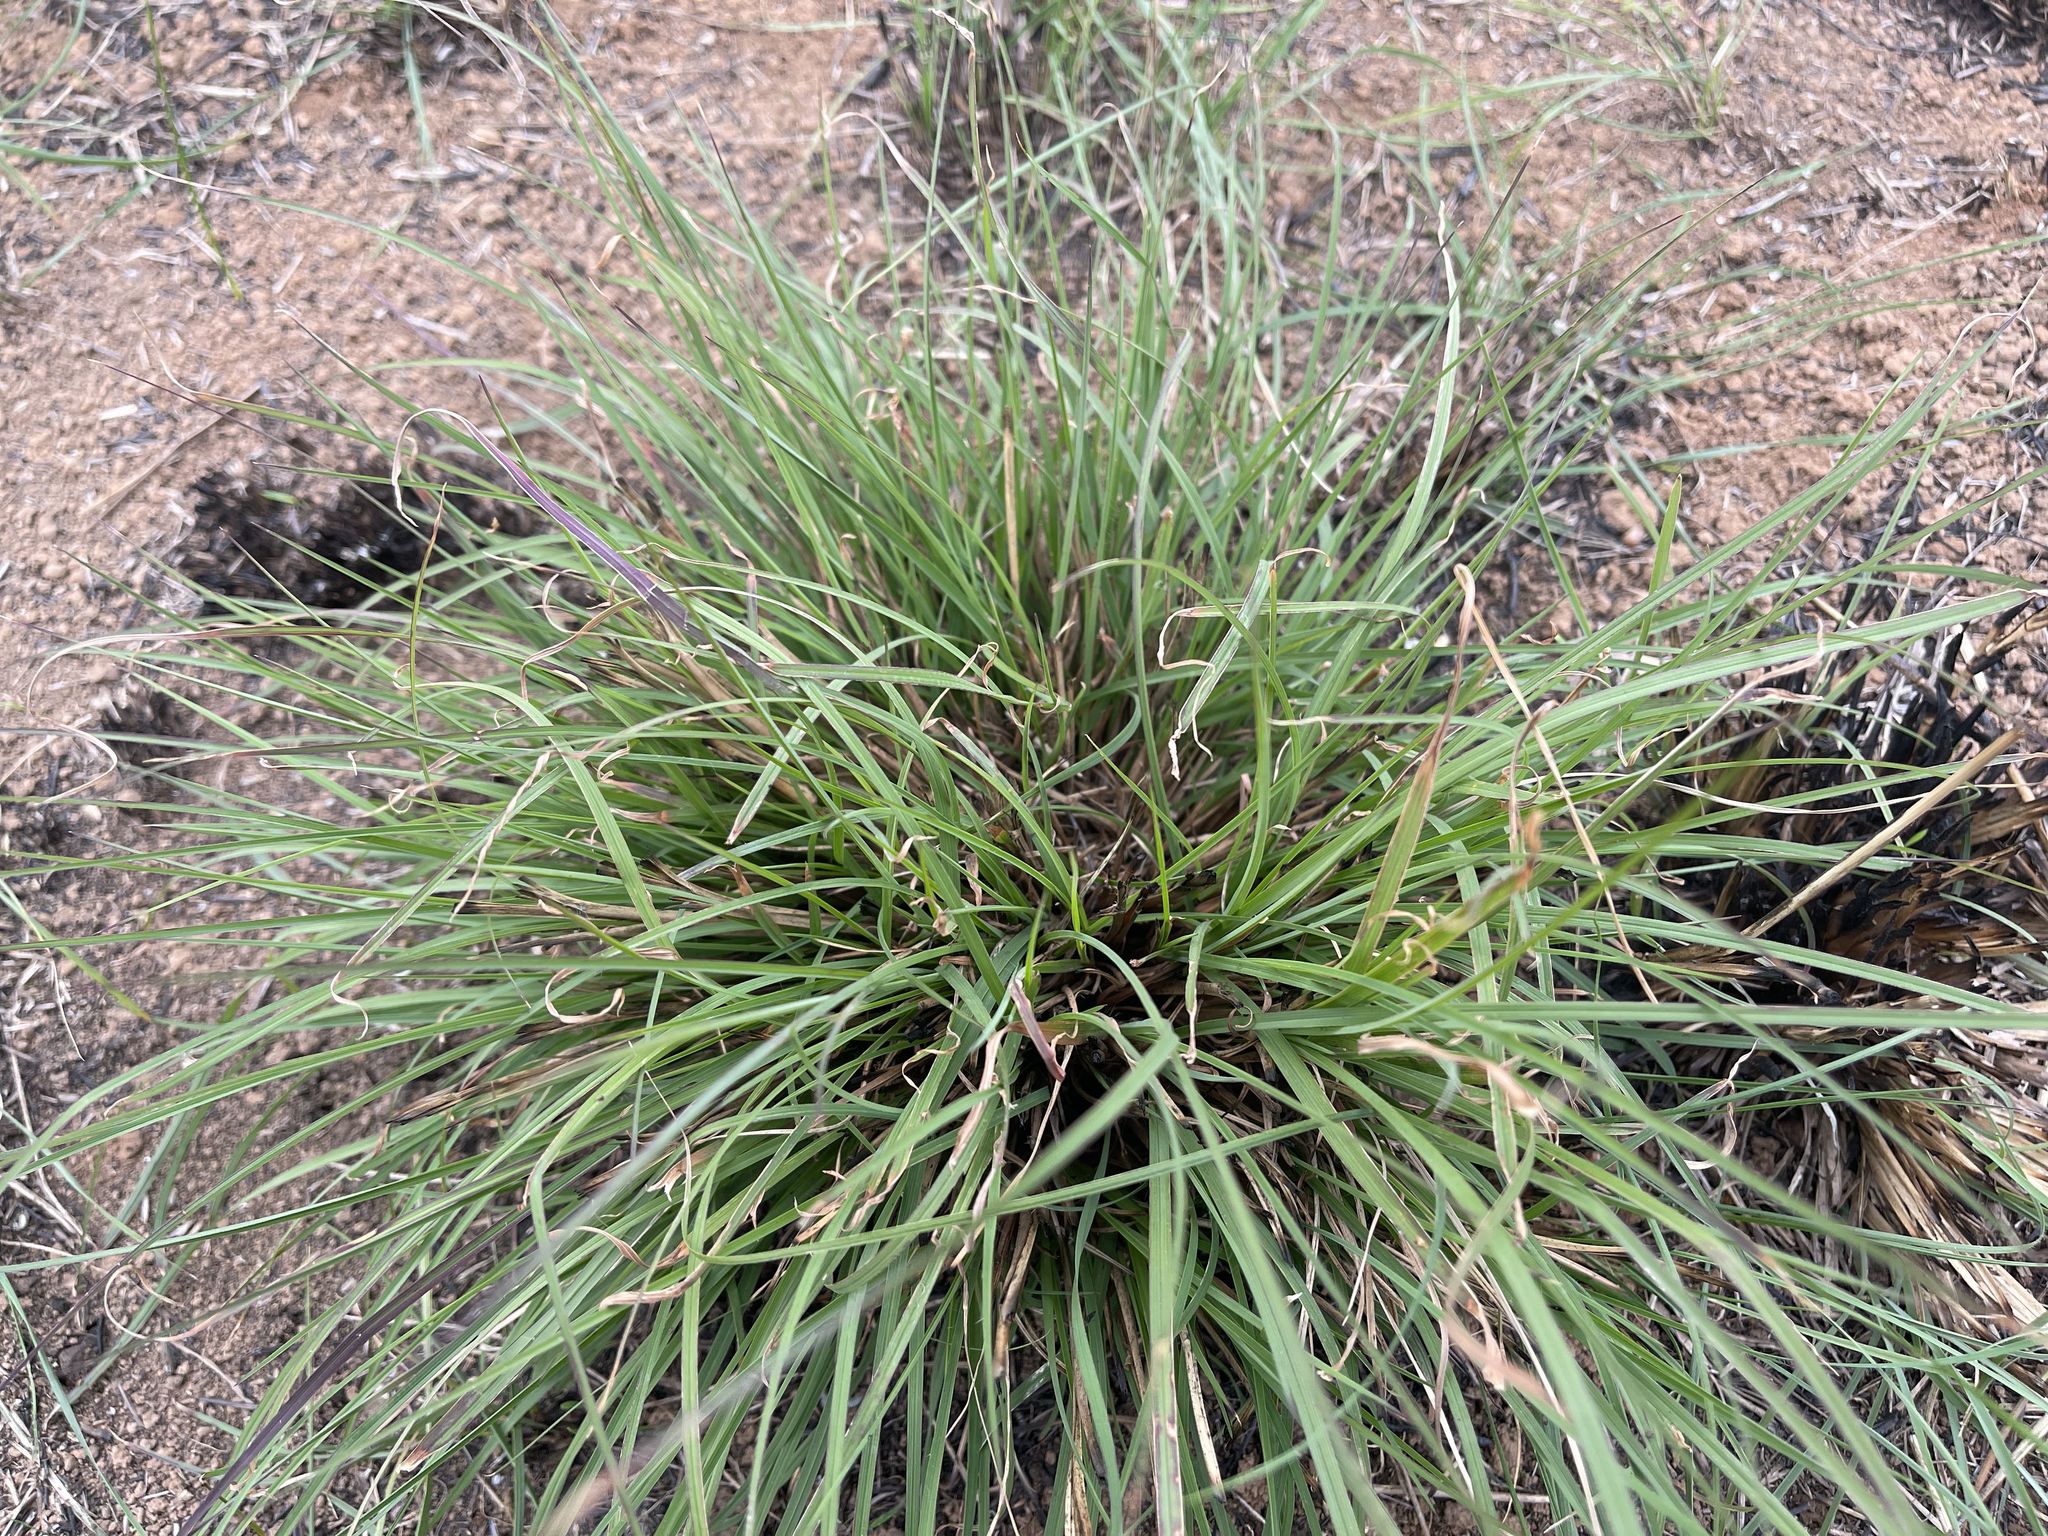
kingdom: Plantae
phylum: Tracheophyta
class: Liliopsida
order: Poales
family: Poaceae
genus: Themeda
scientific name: Themeda triandra
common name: Kangaroo grass
